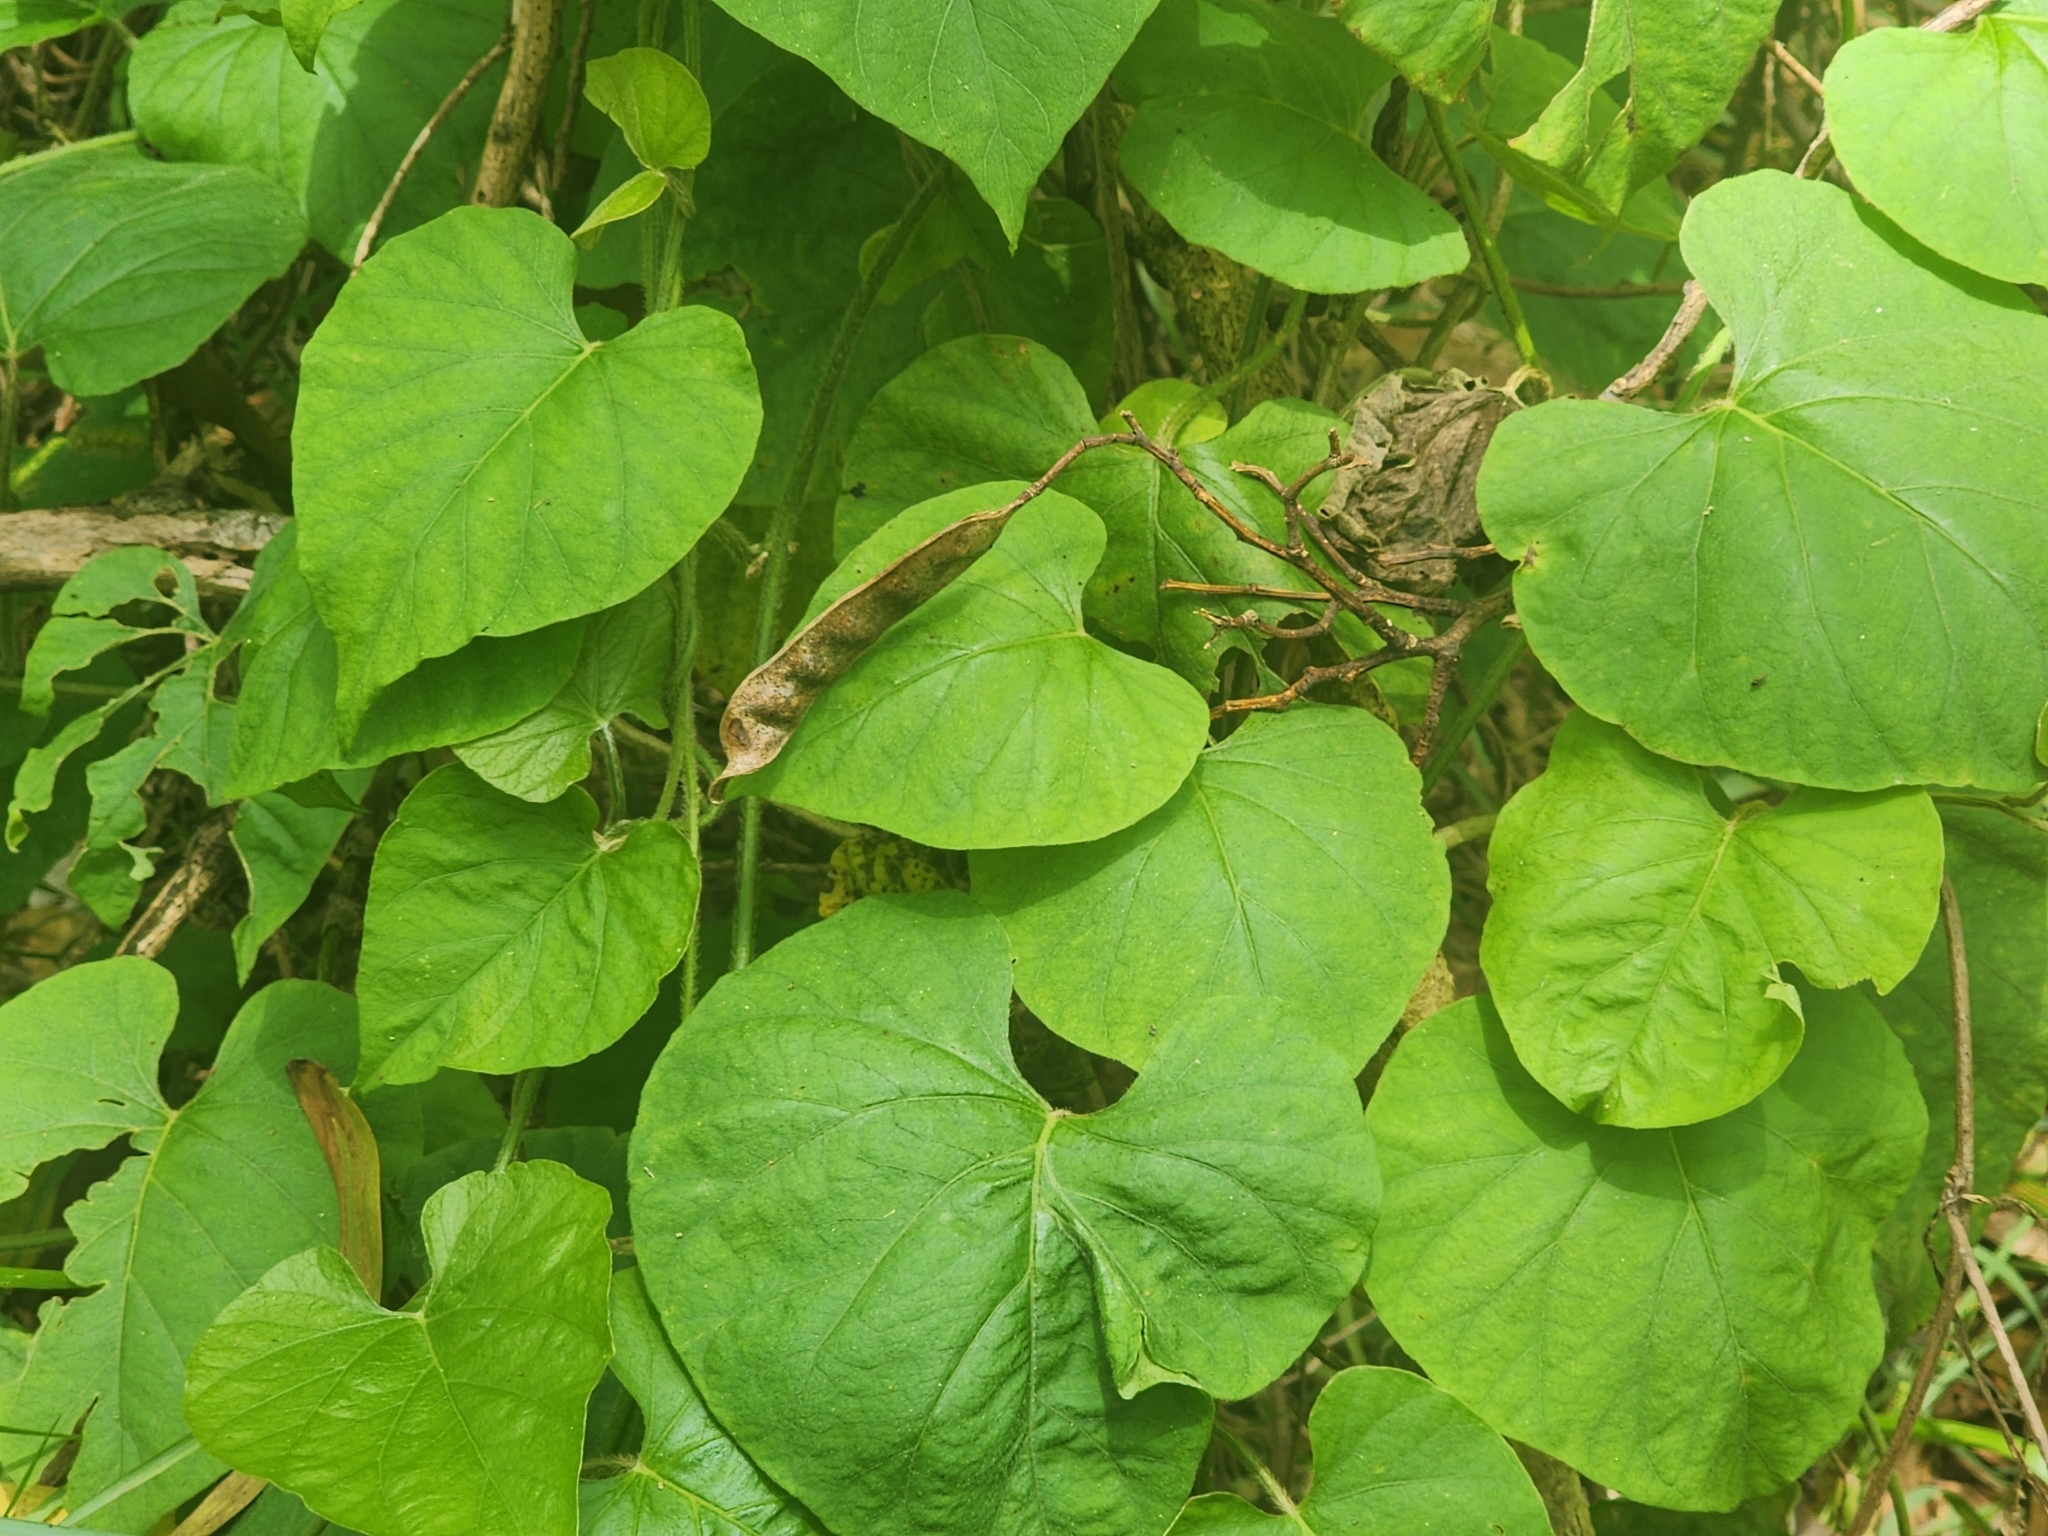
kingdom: Plantae
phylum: Tracheophyta
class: Magnoliopsida
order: Solanales
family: Convolvulaceae
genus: Ipomoea
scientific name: Ipomoea indica
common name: Blue dawnflower
